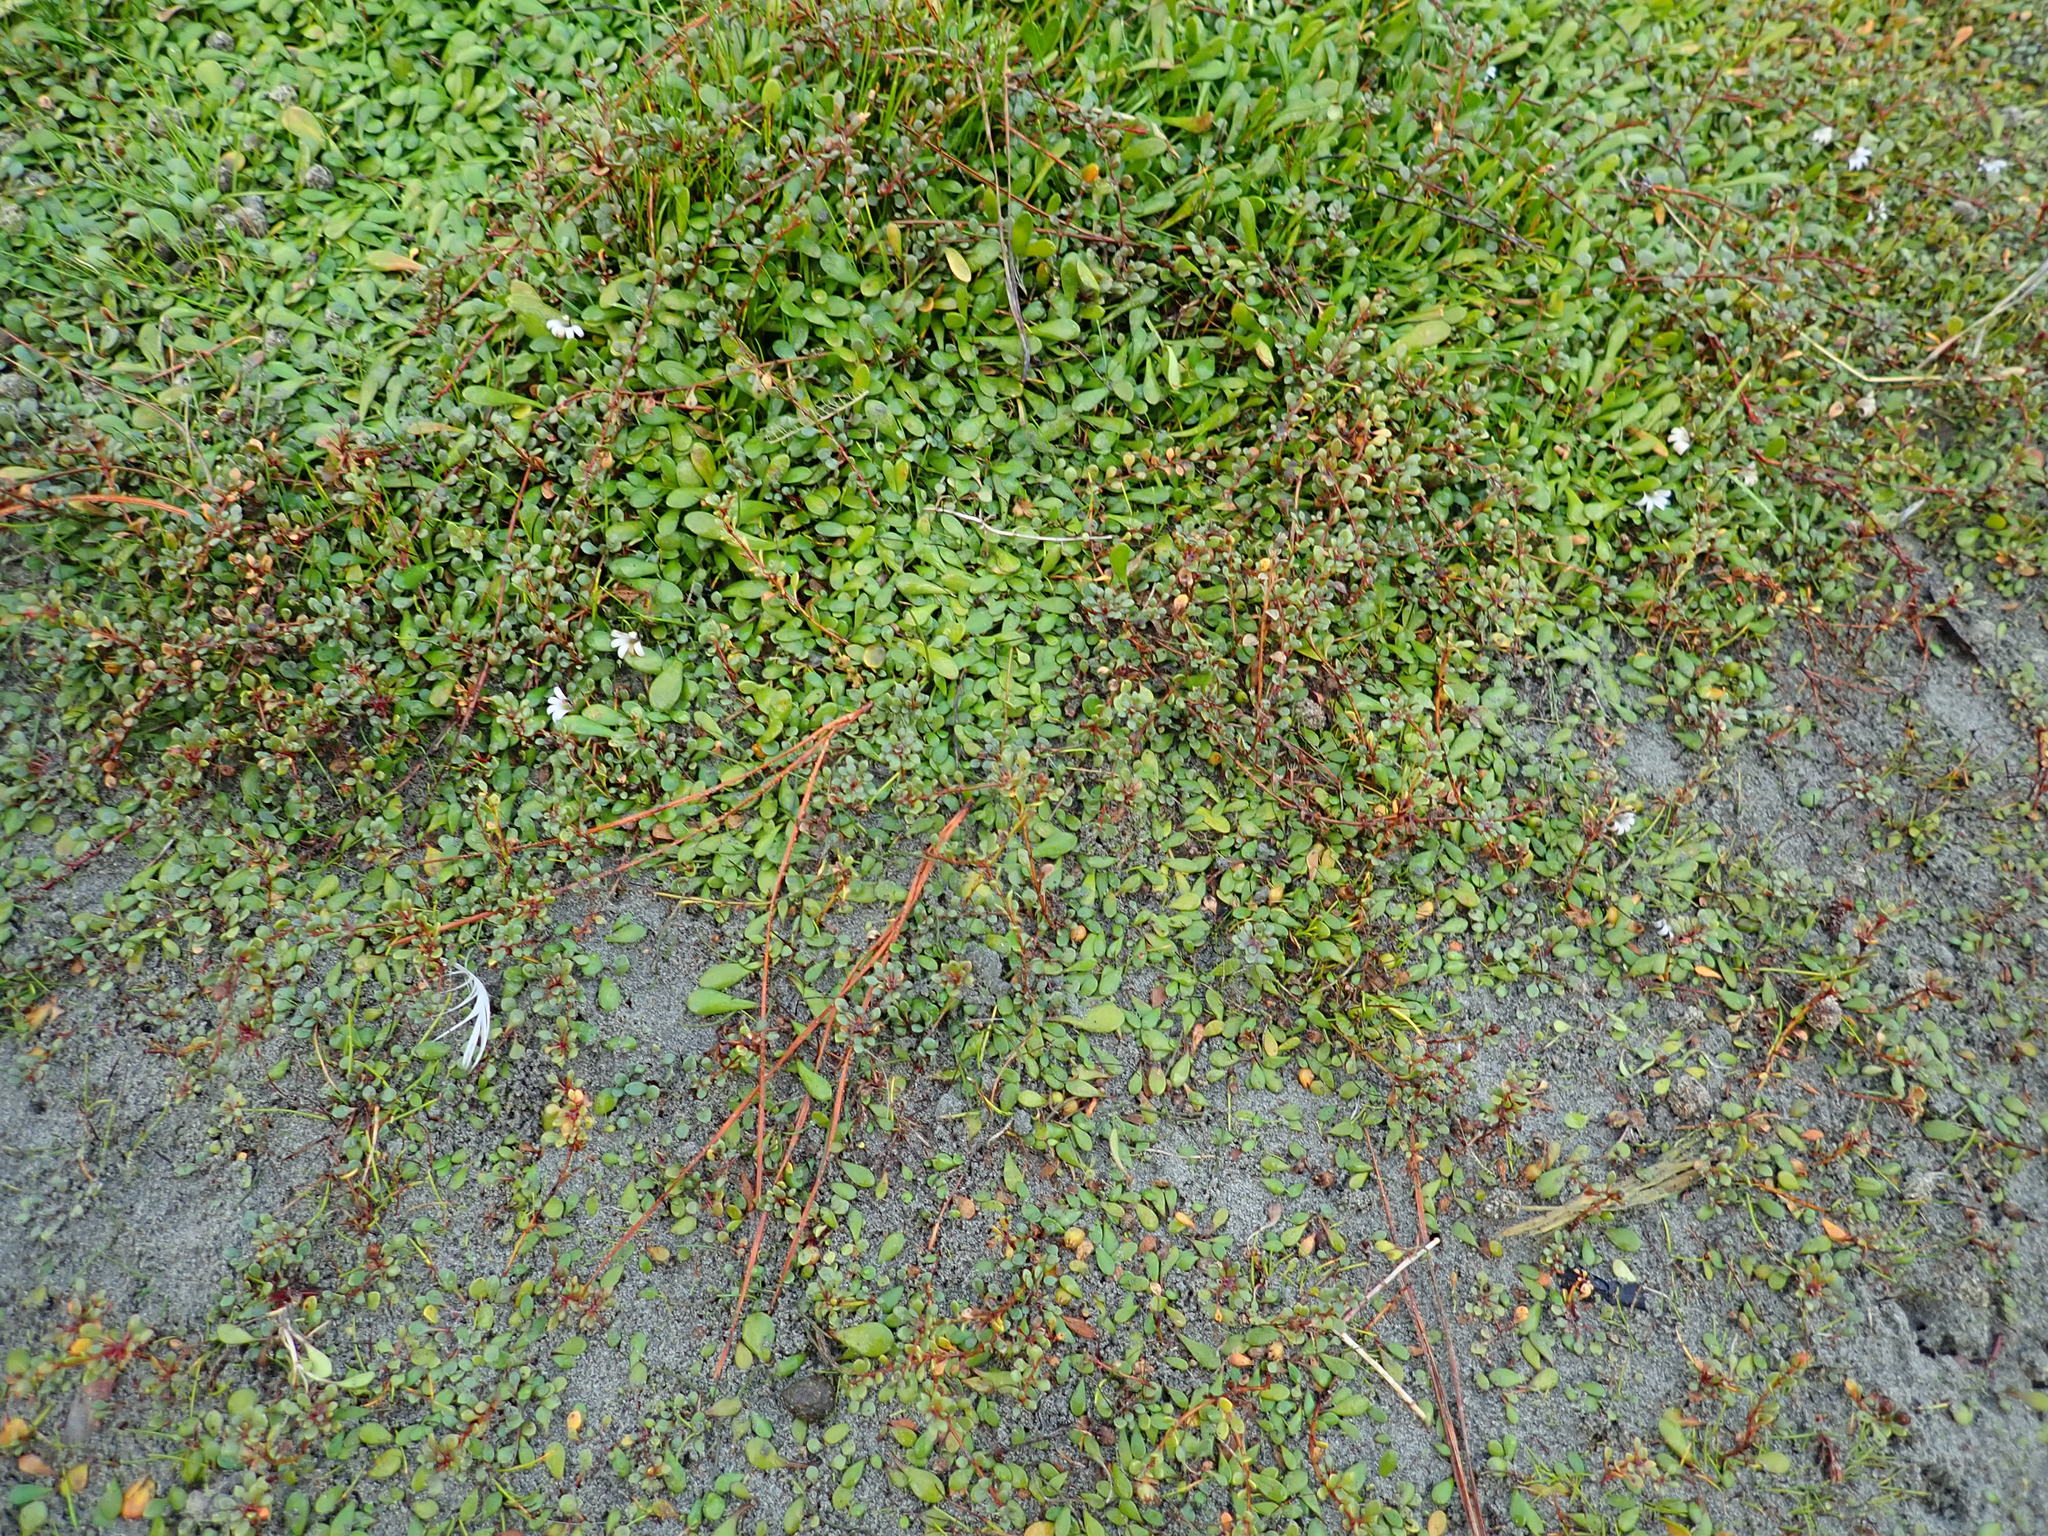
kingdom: Plantae
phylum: Tracheophyta
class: Magnoliopsida
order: Asterales
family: Goodeniaceae
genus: Goodenia
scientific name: Goodenia radicans
